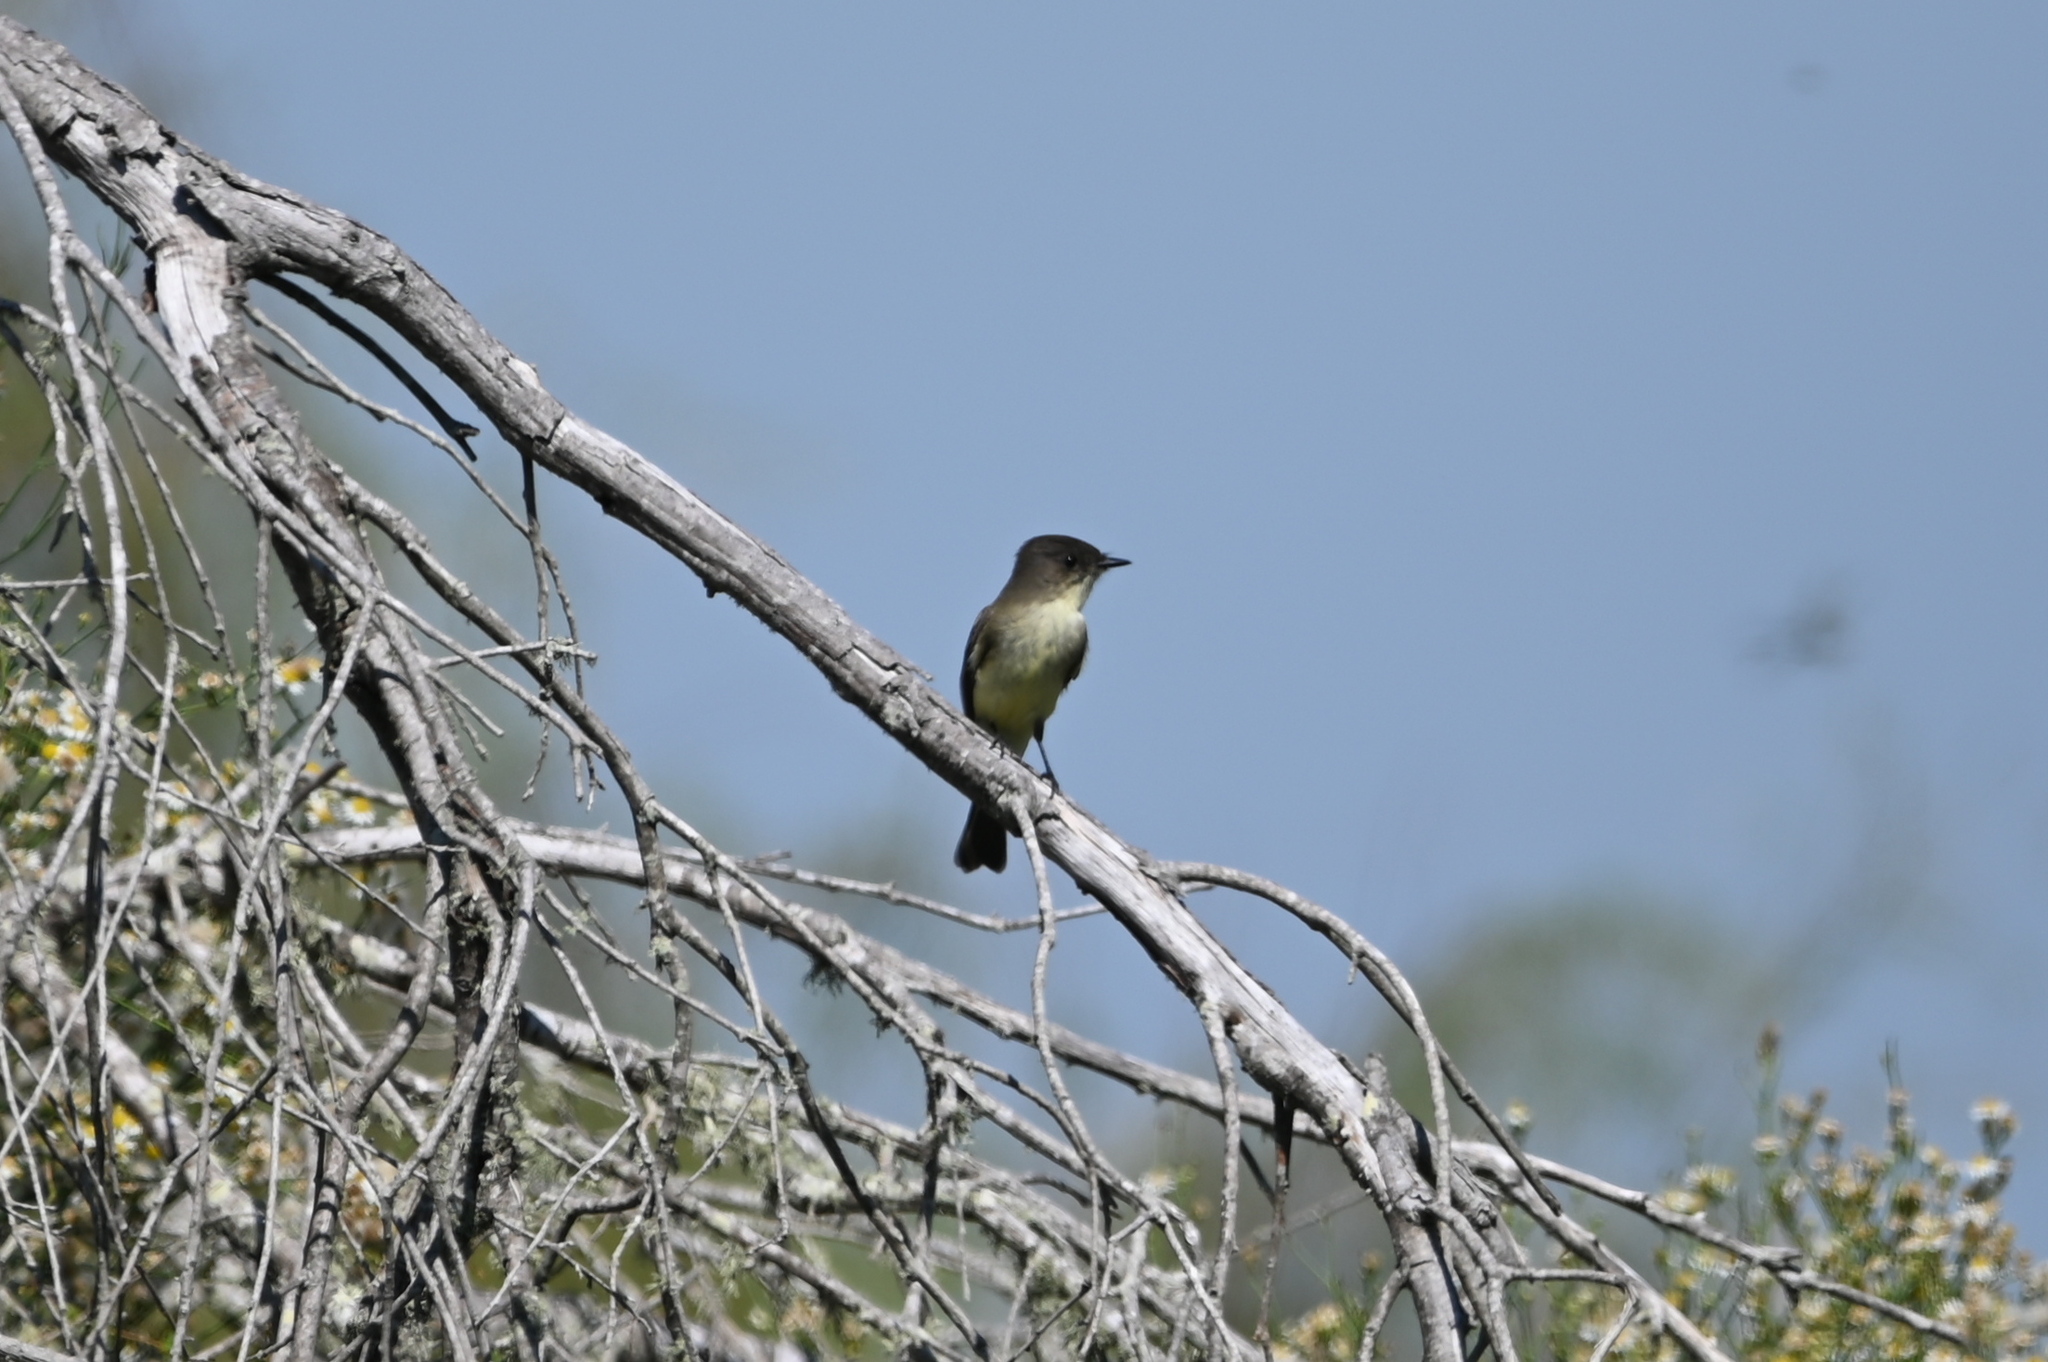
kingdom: Animalia
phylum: Chordata
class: Aves
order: Passeriformes
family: Tyrannidae
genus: Sayornis
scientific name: Sayornis phoebe
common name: Eastern phoebe
